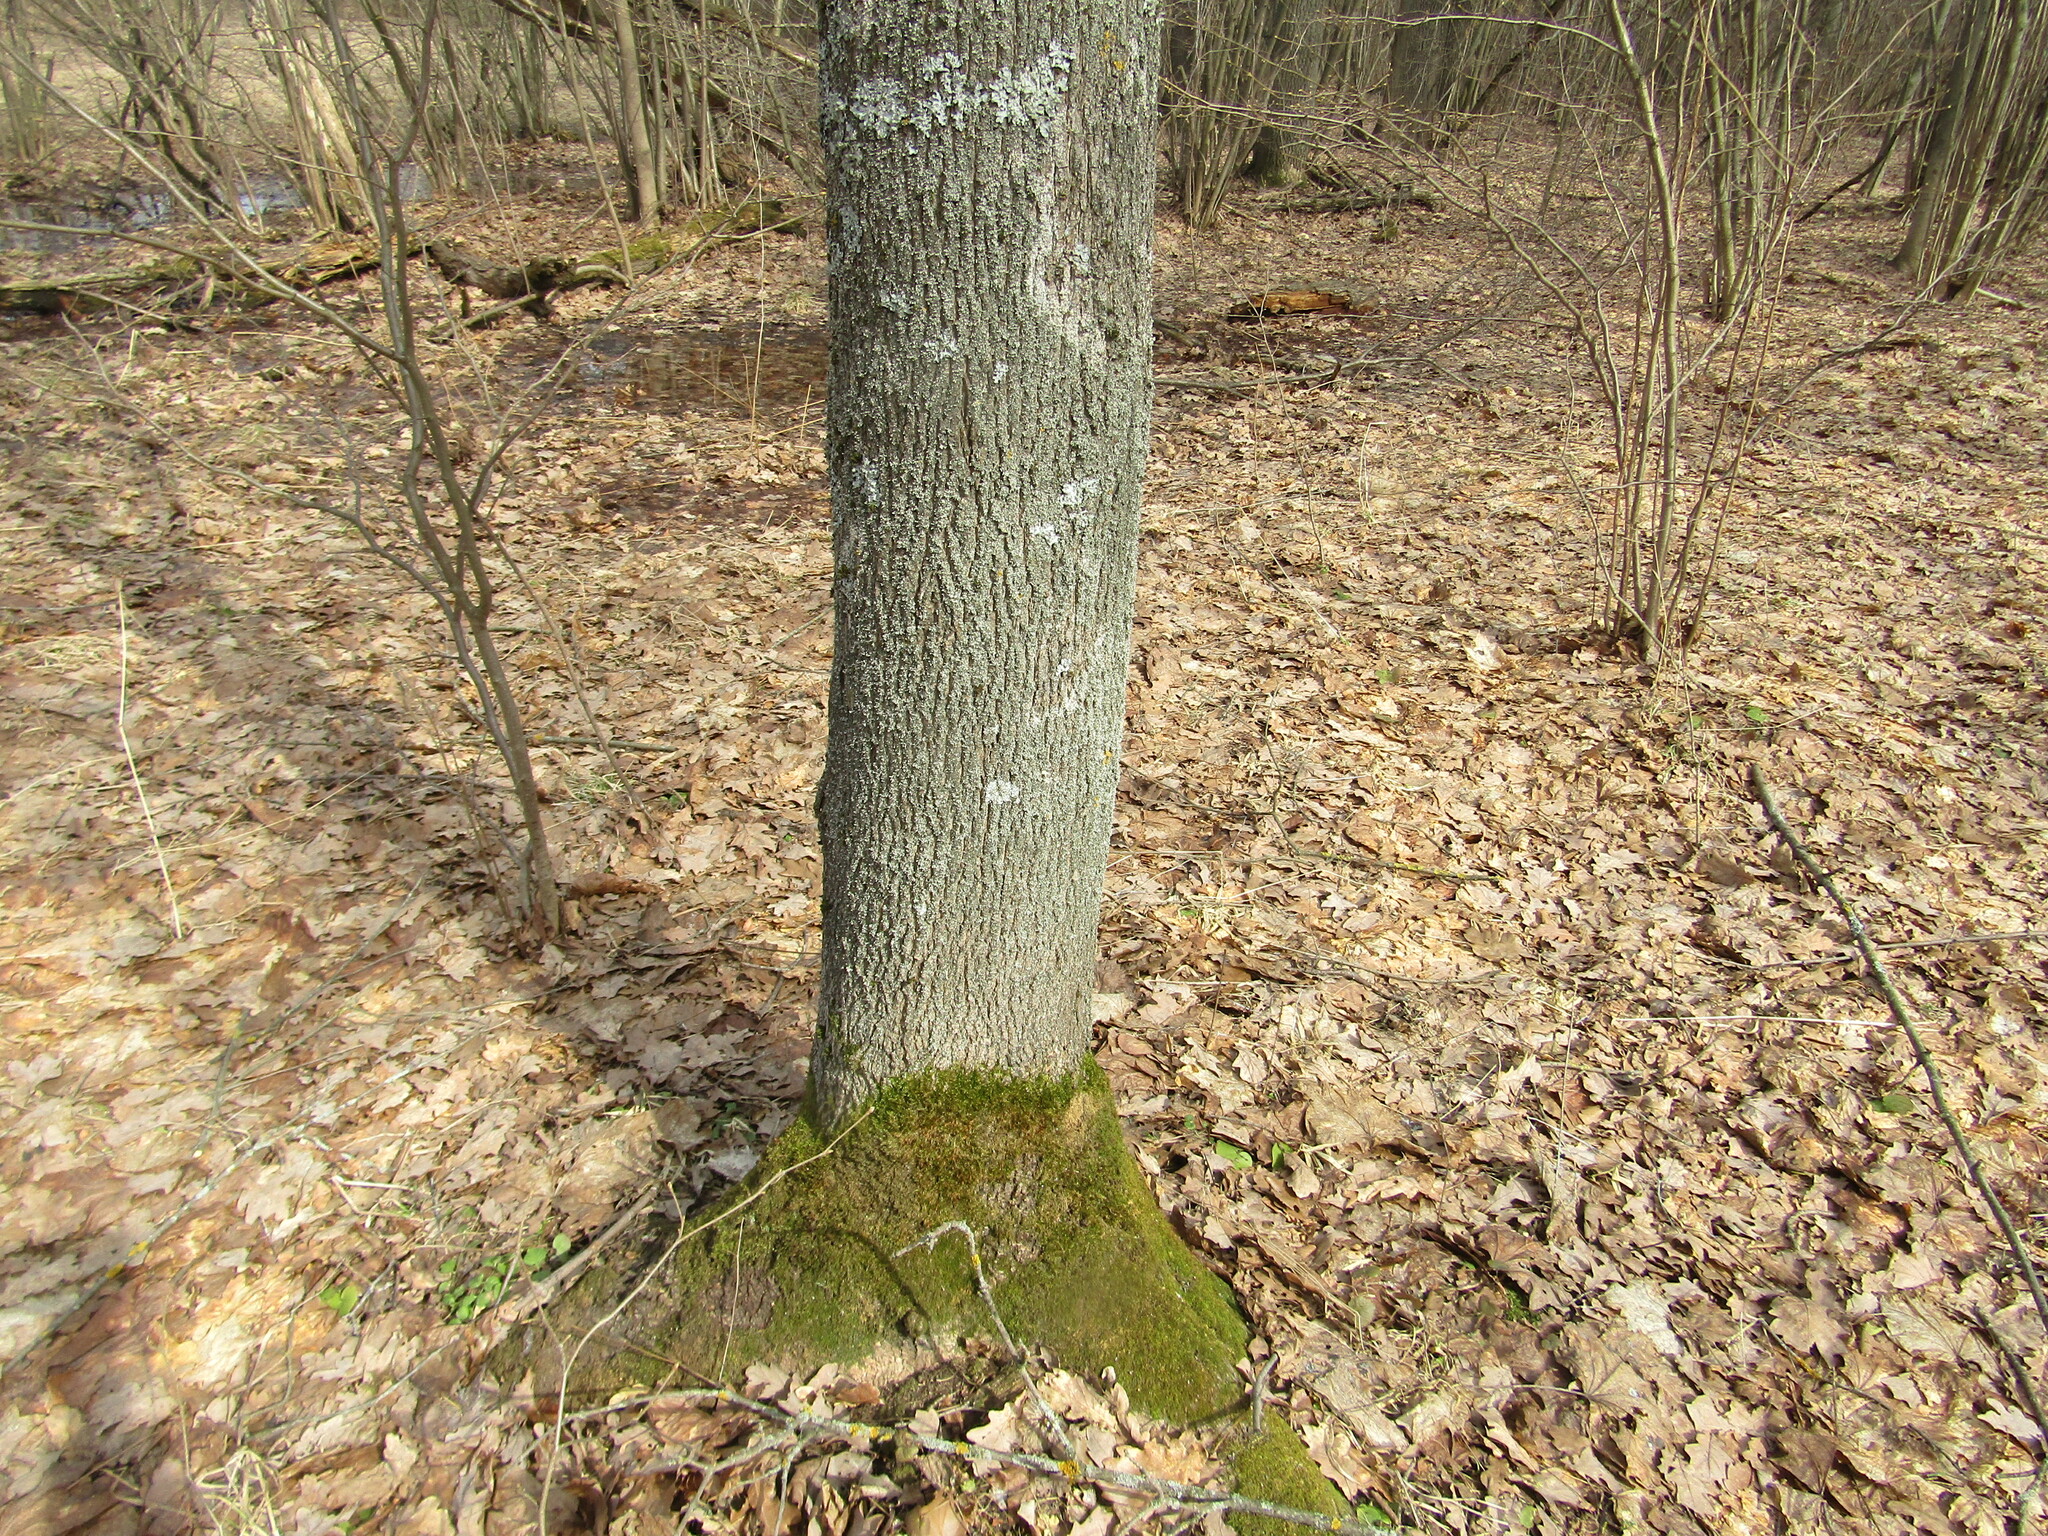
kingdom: Plantae
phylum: Tracheophyta
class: Magnoliopsida
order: Sapindales
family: Sapindaceae
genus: Acer
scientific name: Acer platanoides
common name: Norway maple
